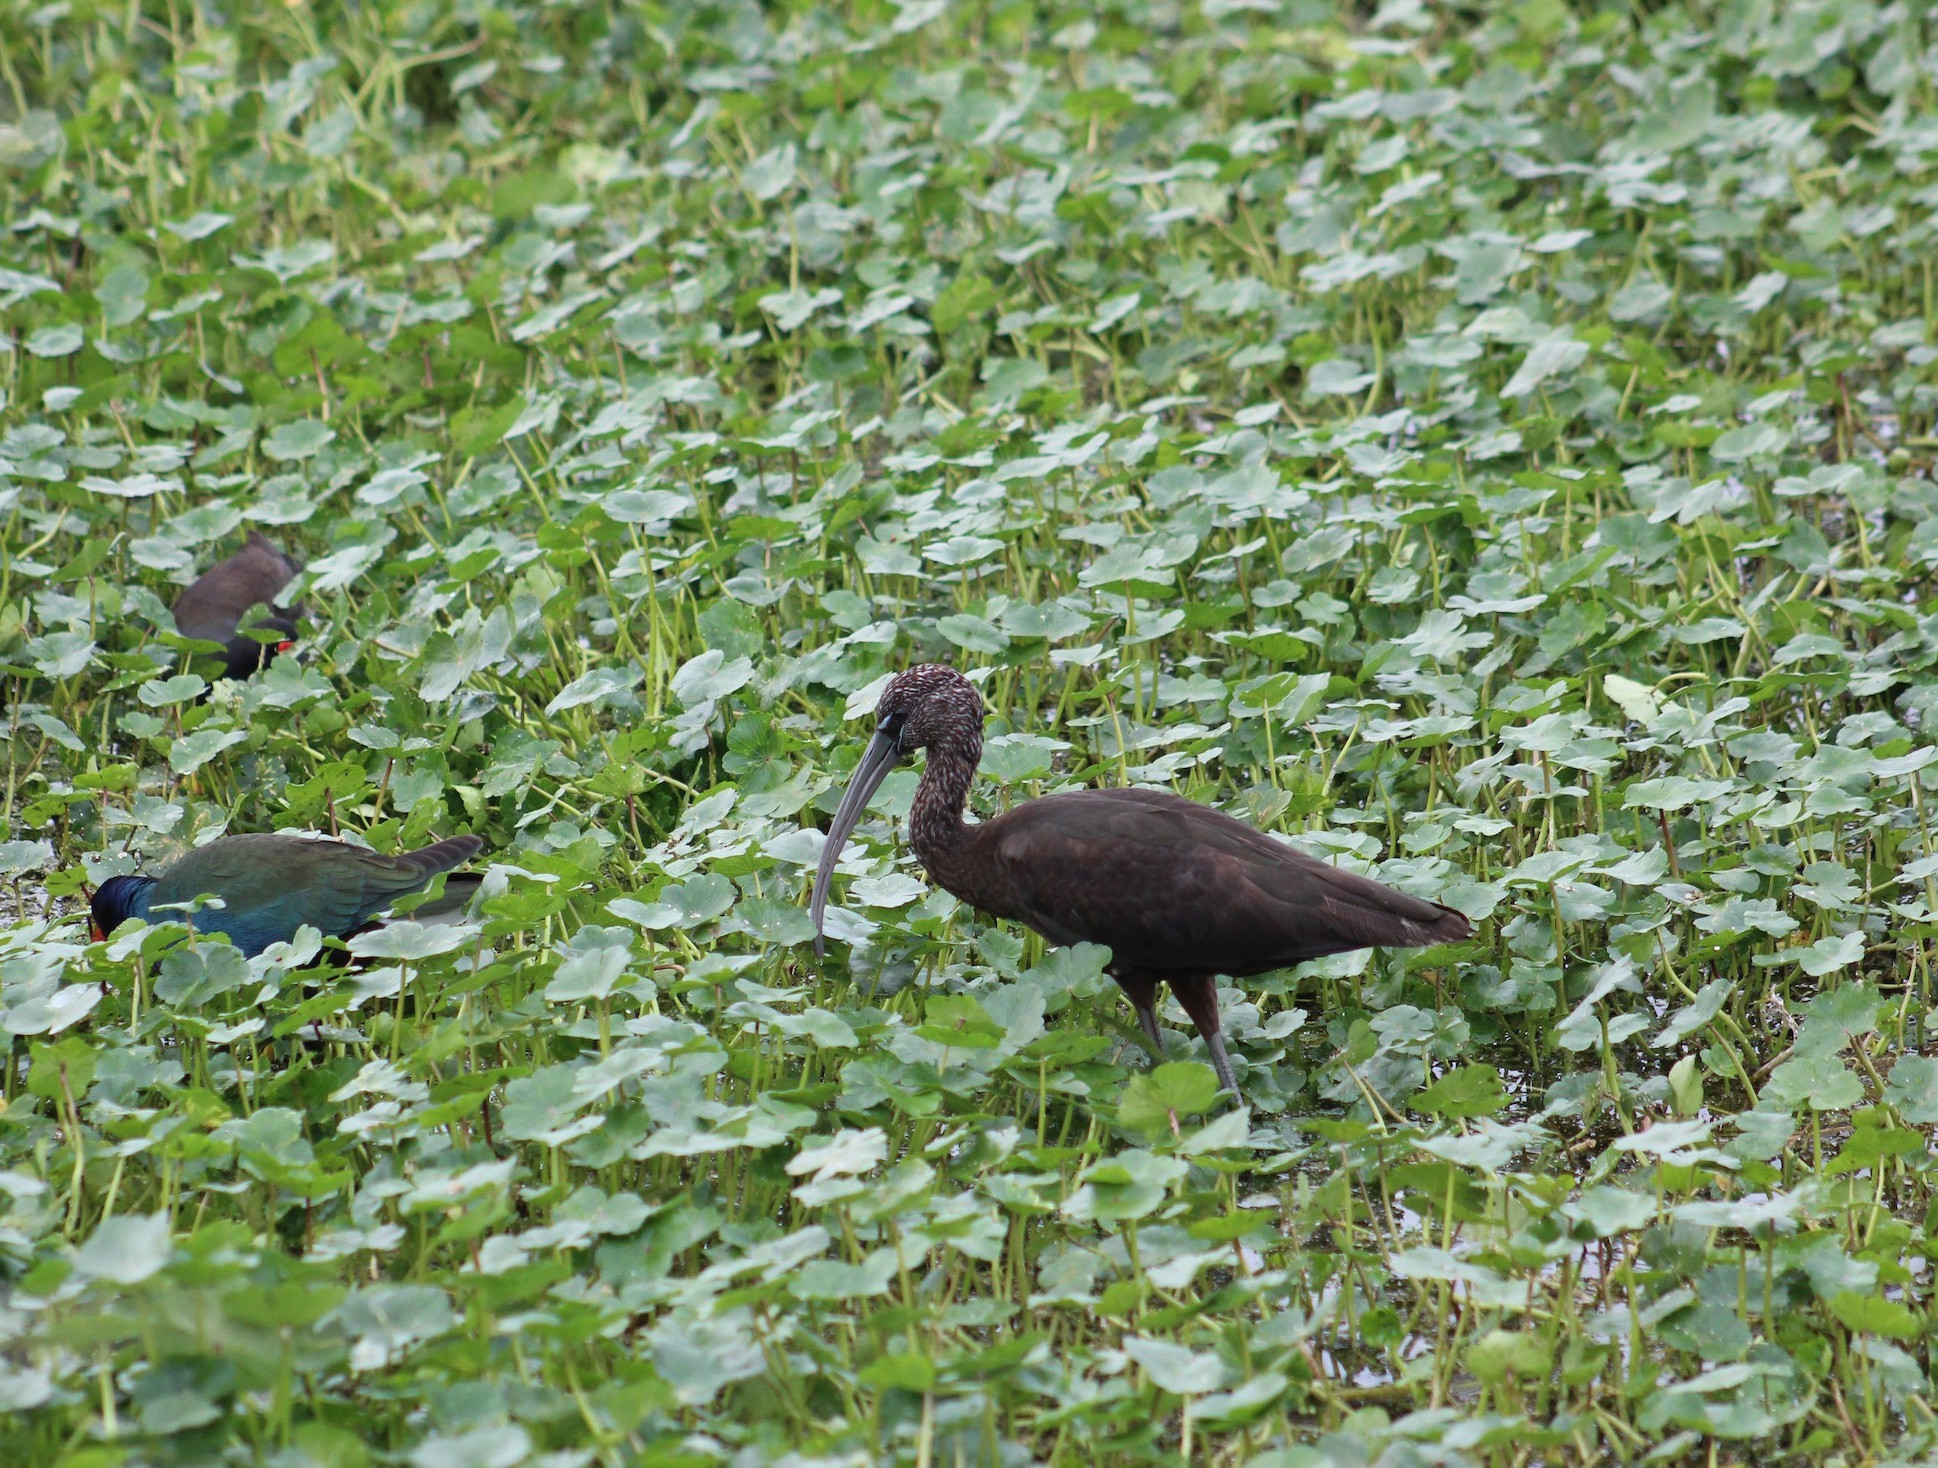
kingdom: Animalia
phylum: Chordata
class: Aves
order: Pelecaniformes
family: Threskiornithidae
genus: Plegadis
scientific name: Plegadis falcinellus
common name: Glossy ibis
